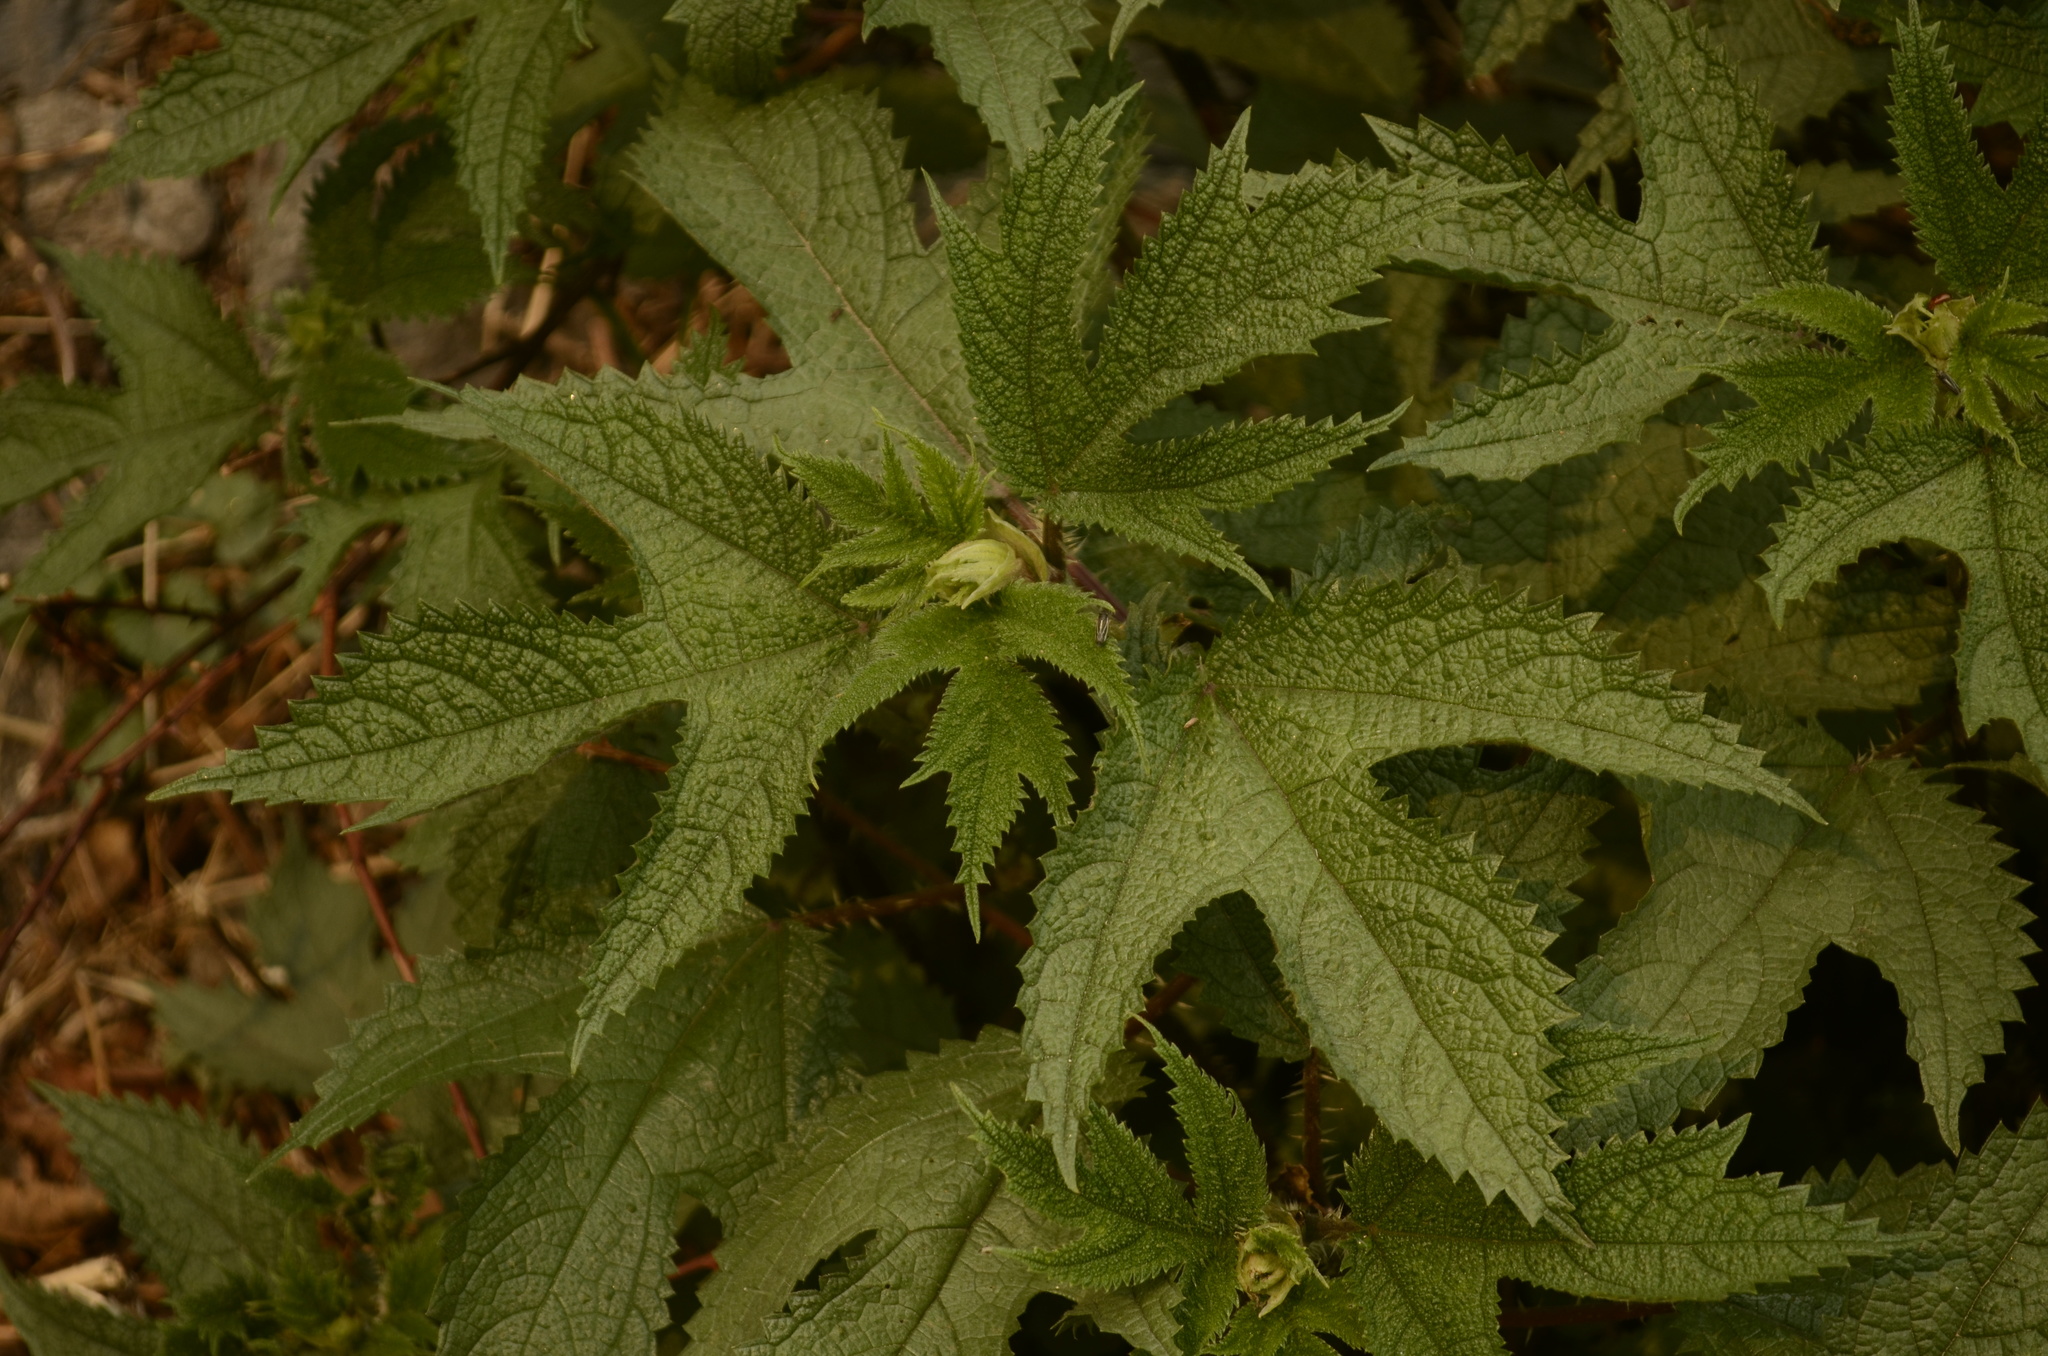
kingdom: Plantae
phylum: Tracheophyta
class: Magnoliopsida
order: Rosales
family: Urticaceae
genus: Girardinia
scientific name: Girardinia diversifolia
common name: Himalayan-nettle
